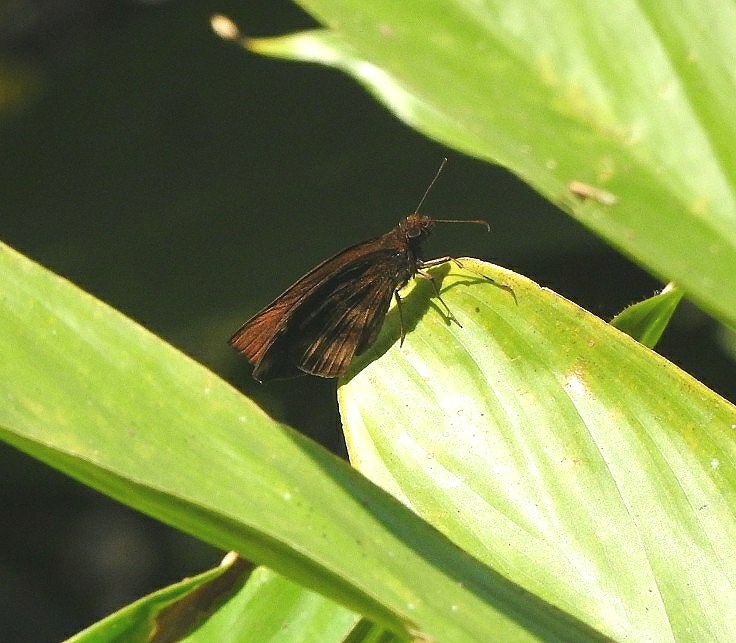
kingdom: Animalia
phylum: Arthropoda
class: Insecta
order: Lepidoptera
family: Hesperiidae
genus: Psolos
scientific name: Psolos fuligo
